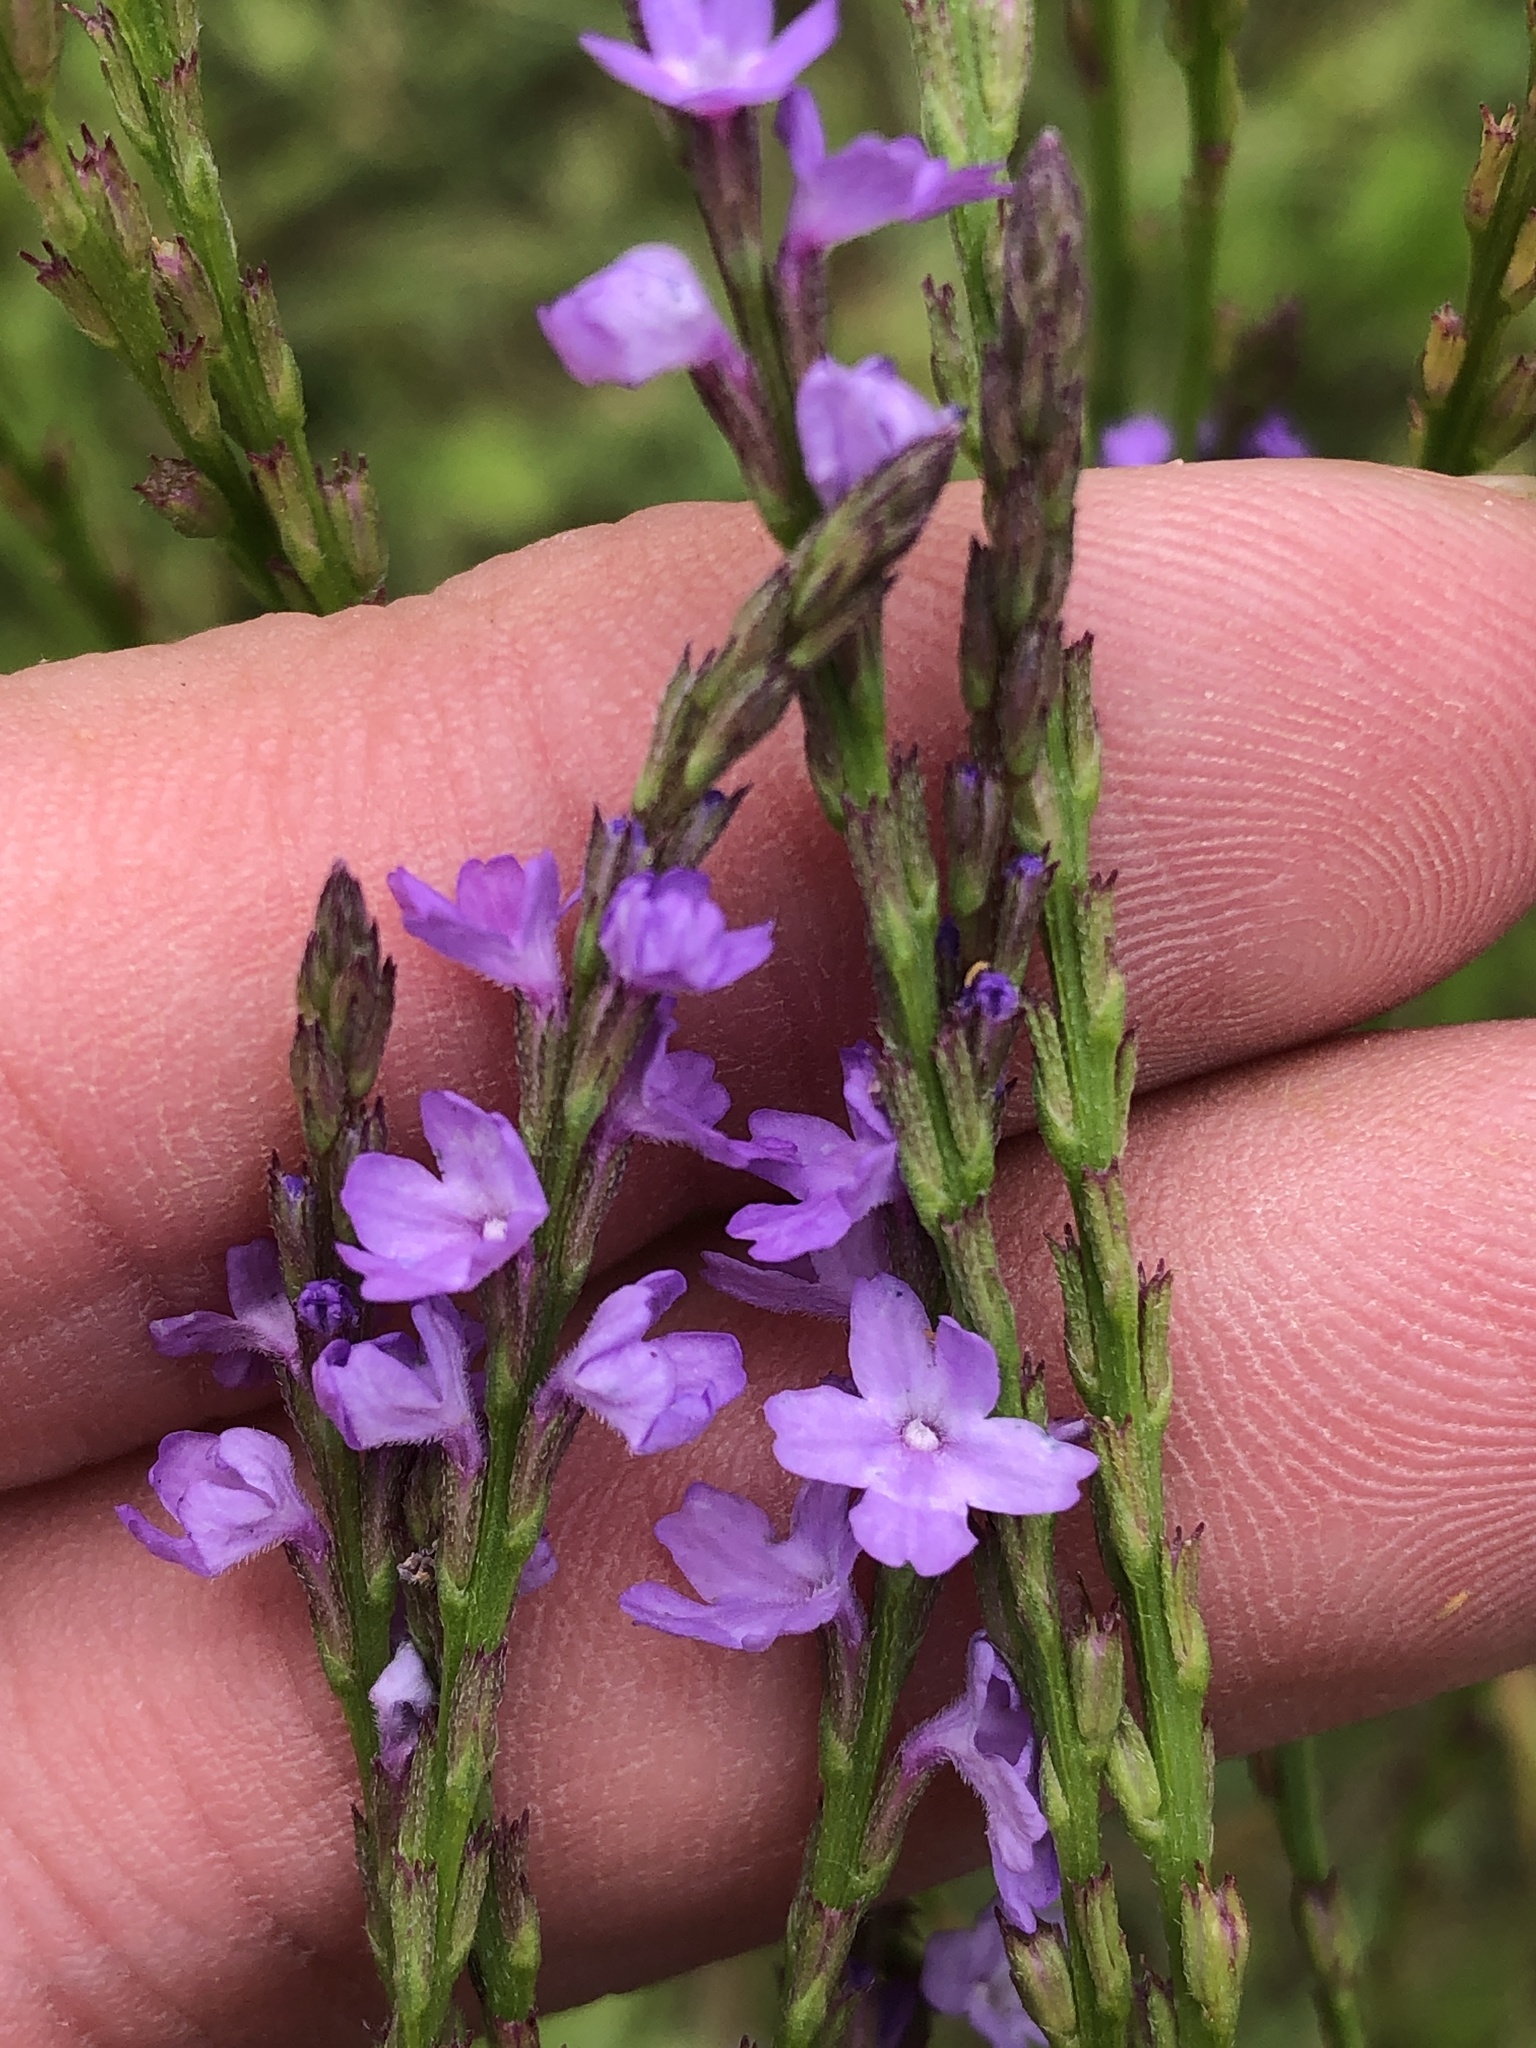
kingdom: Plantae
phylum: Tracheophyta
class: Magnoliopsida
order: Lamiales
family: Verbenaceae
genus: Verbena
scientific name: Verbena halei
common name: Texas vervain
